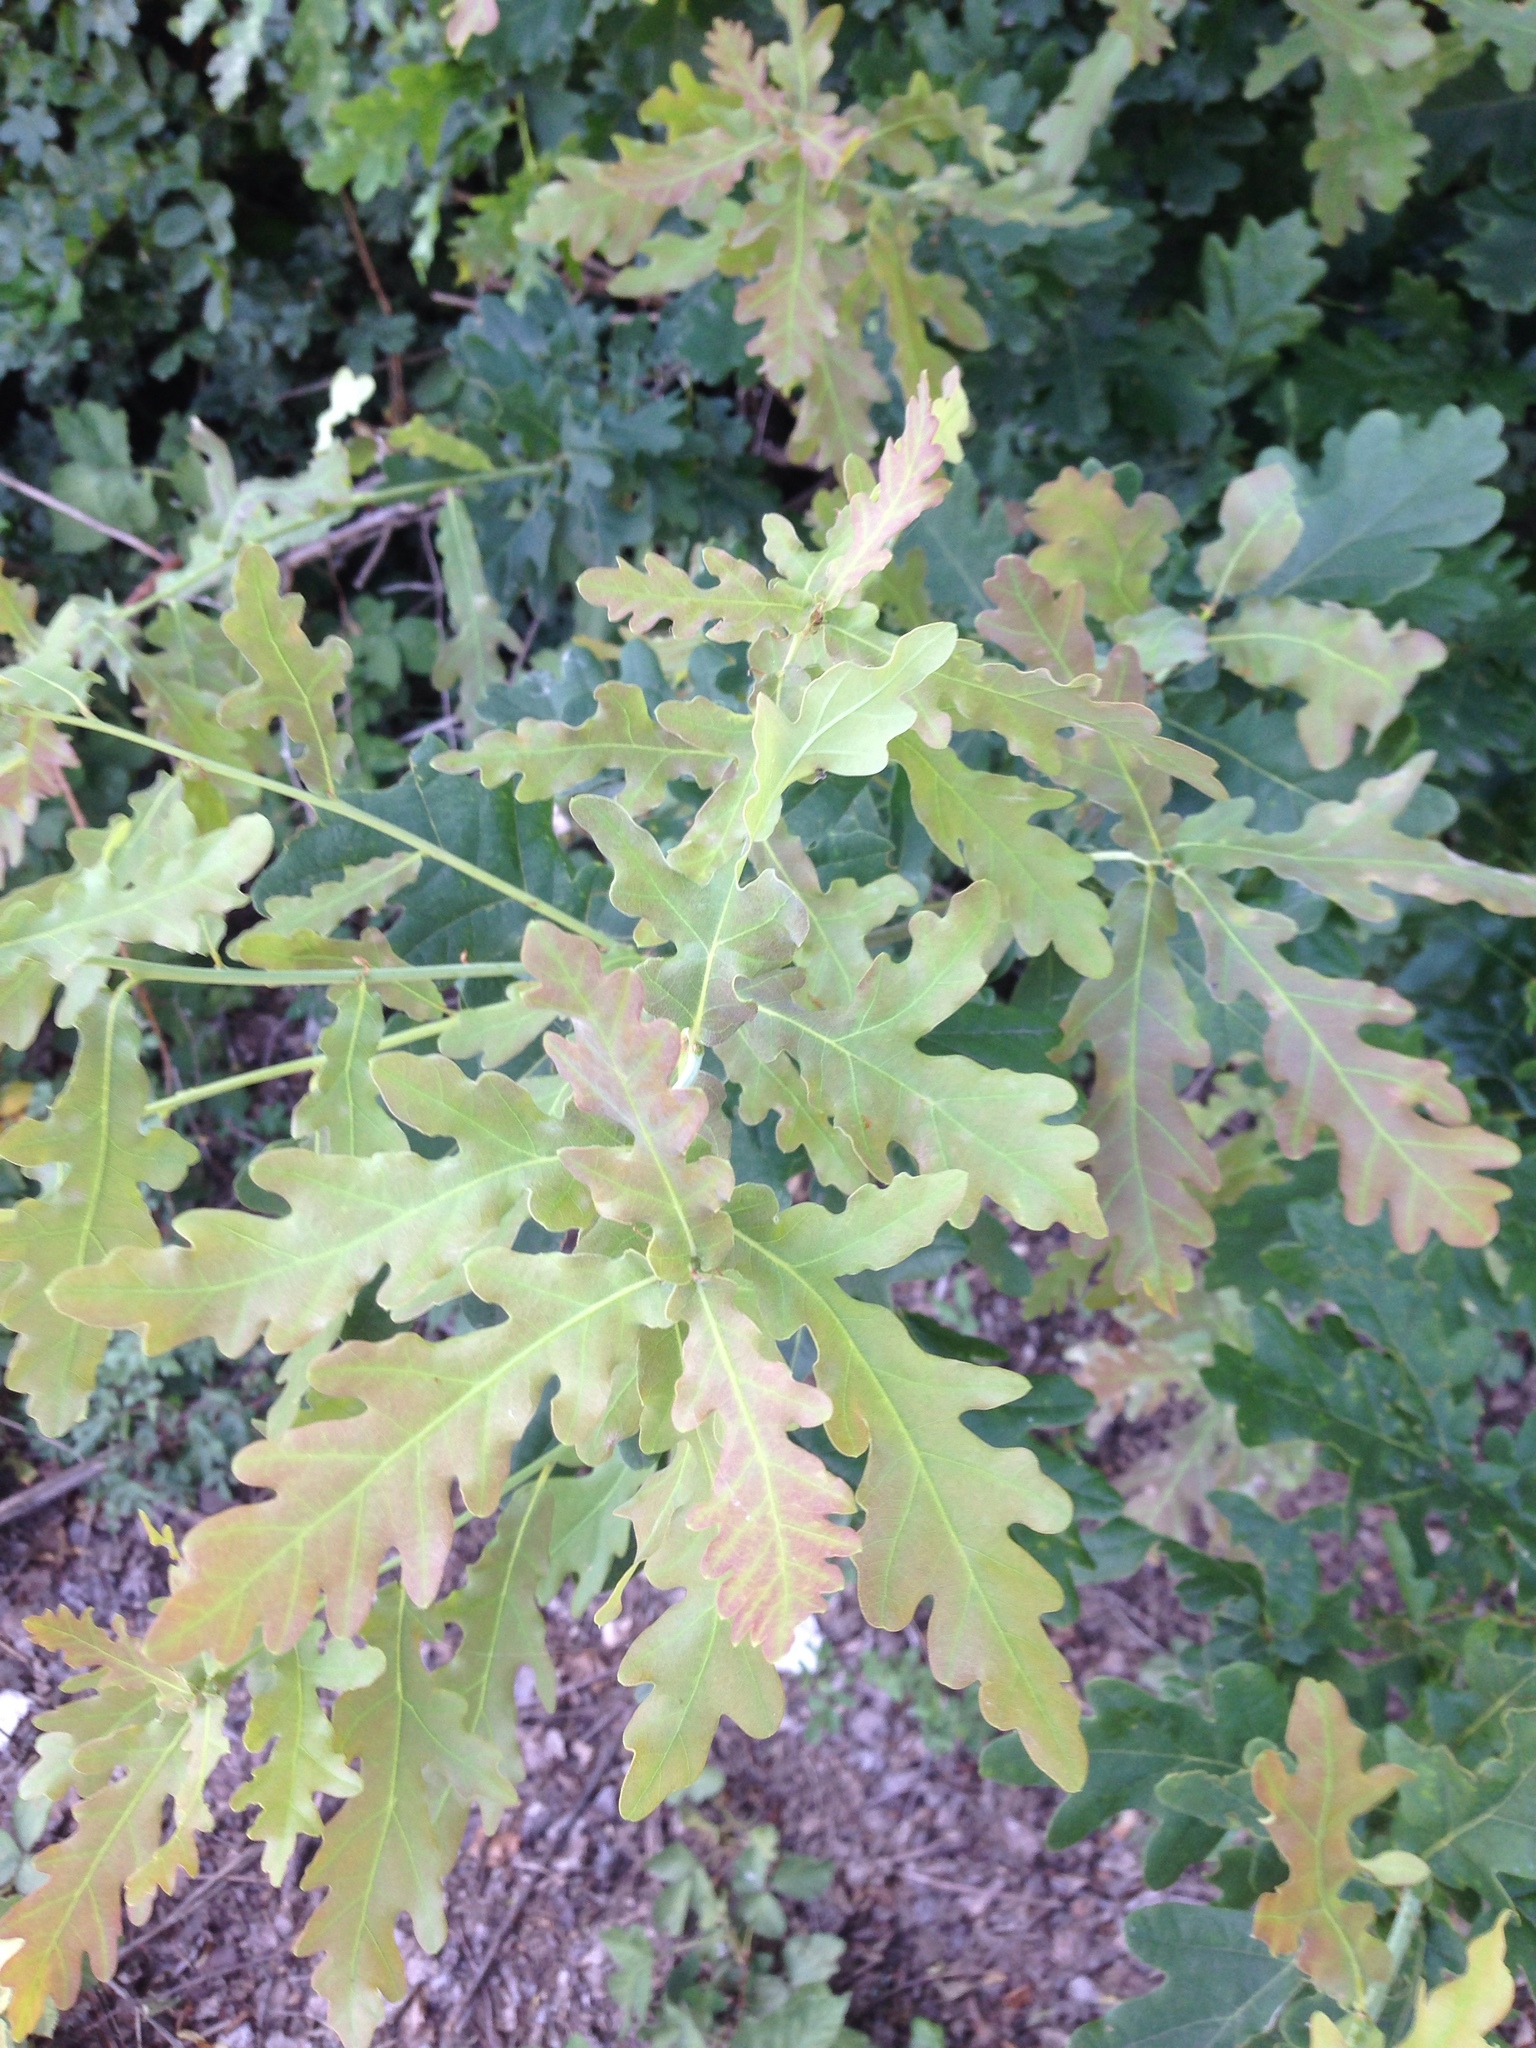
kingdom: Plantae
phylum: Tracheophyta
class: Magnoliopsida
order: Fagales
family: Fagaceae
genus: Quercus
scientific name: Quercus robur
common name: Pedunculate oak
